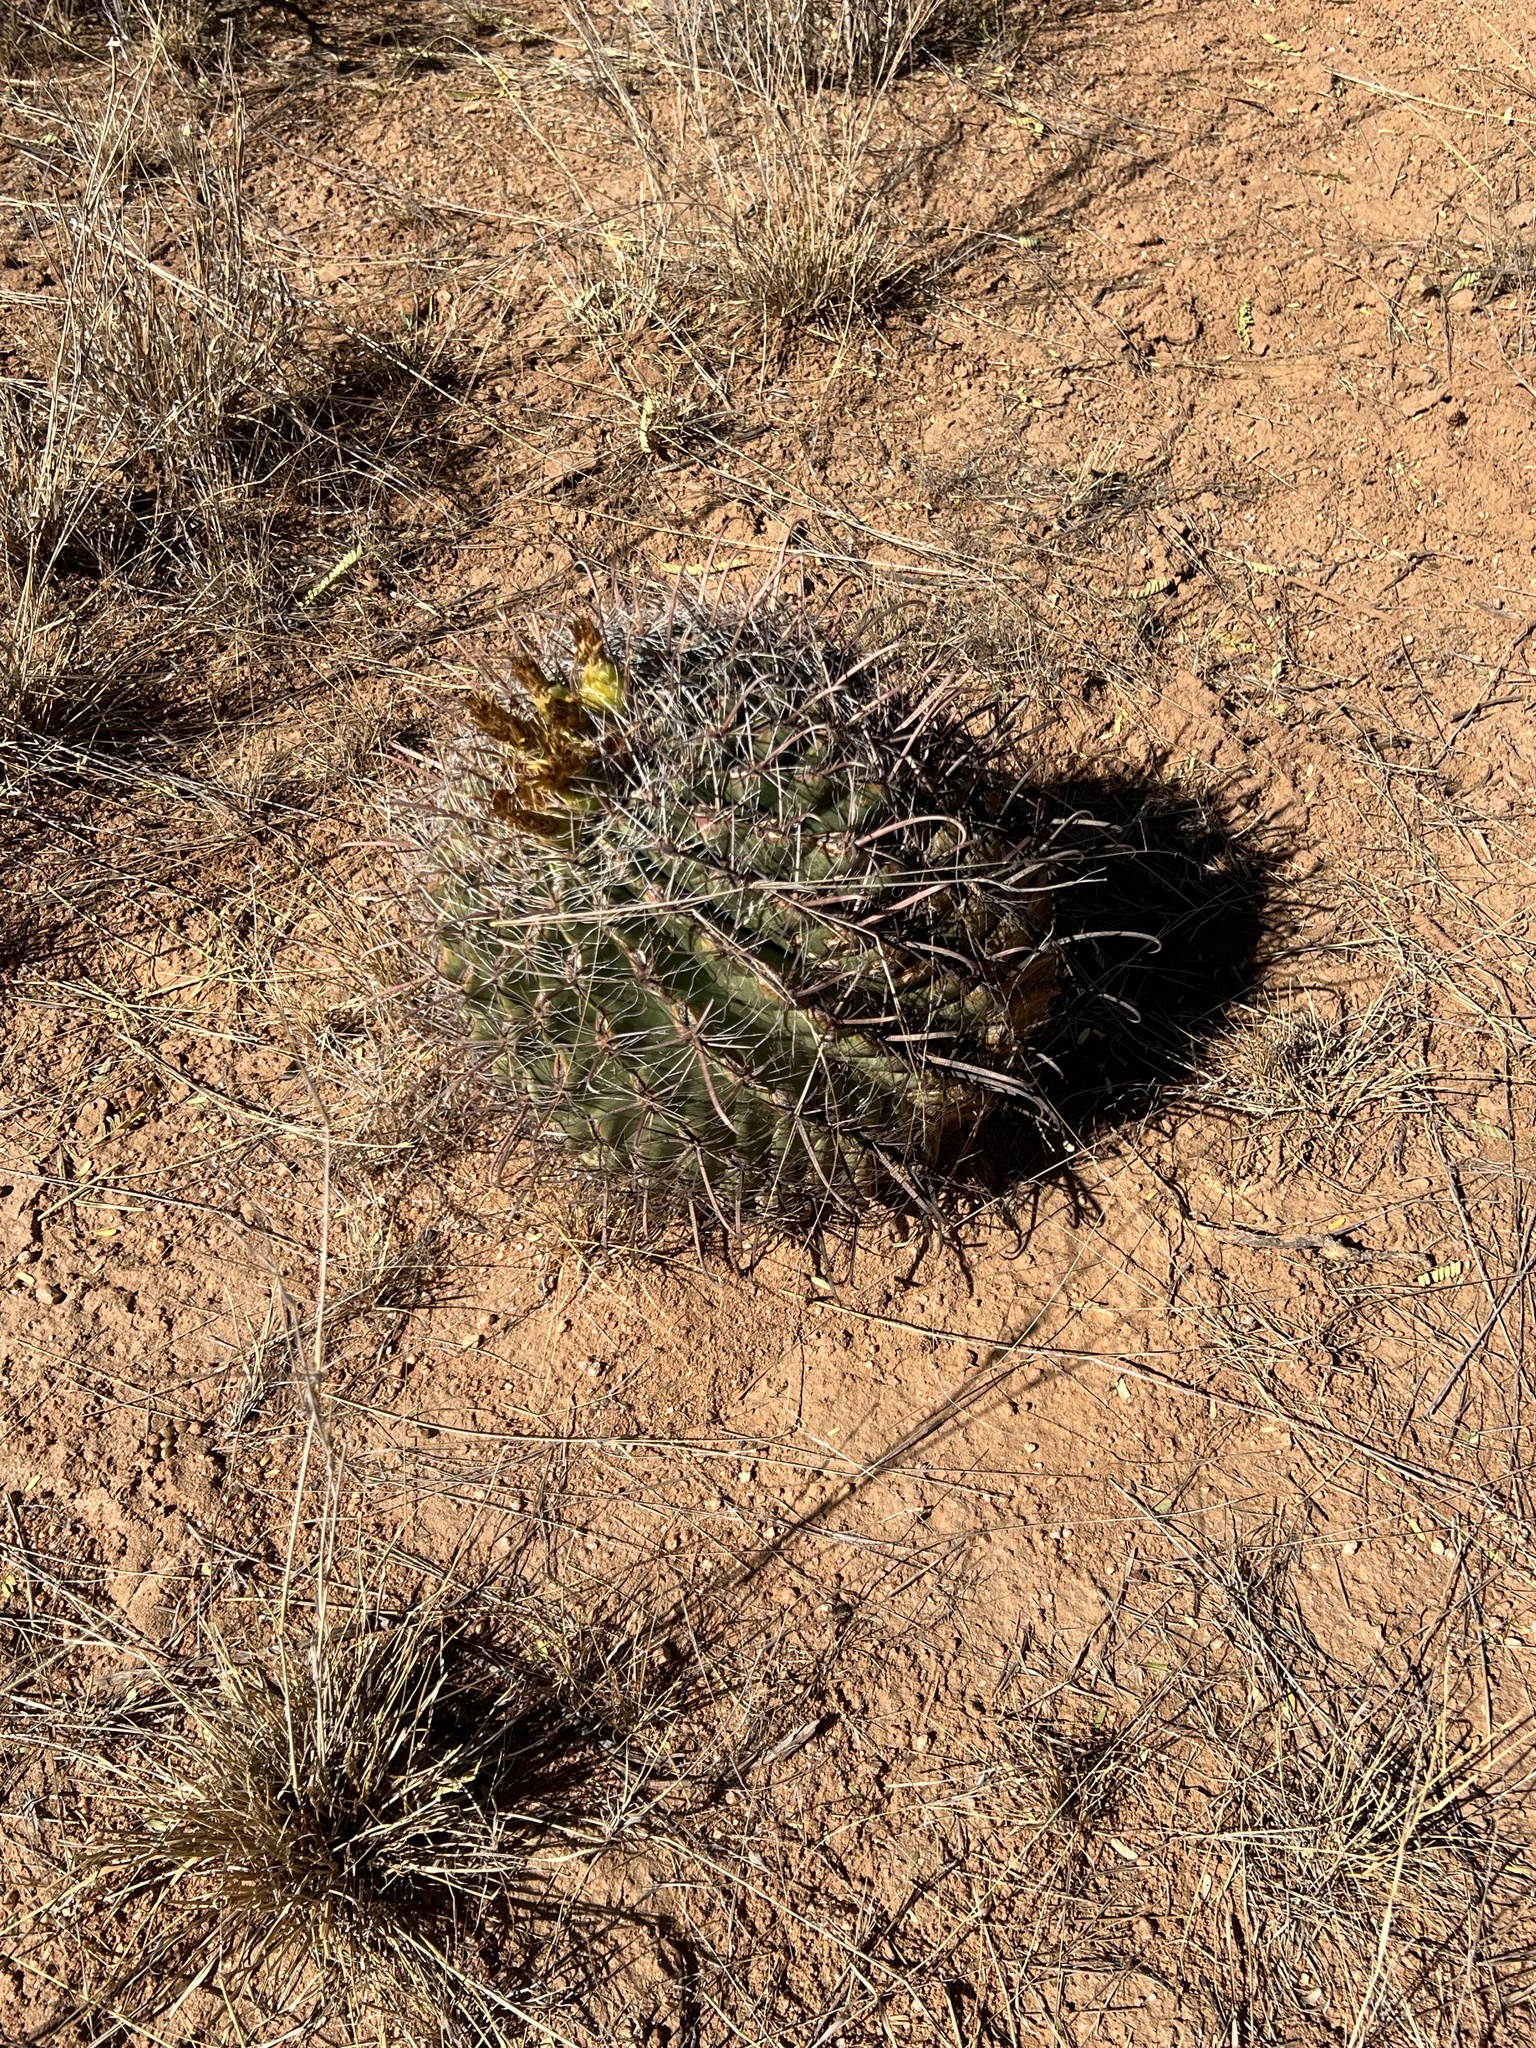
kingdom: Plantae
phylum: Tracheophyta
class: Magnoliopsida
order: Caryophyllales
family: Cactaceae
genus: Ferocactus
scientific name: Ferocactus wislizeni
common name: Candy barrel cactus
